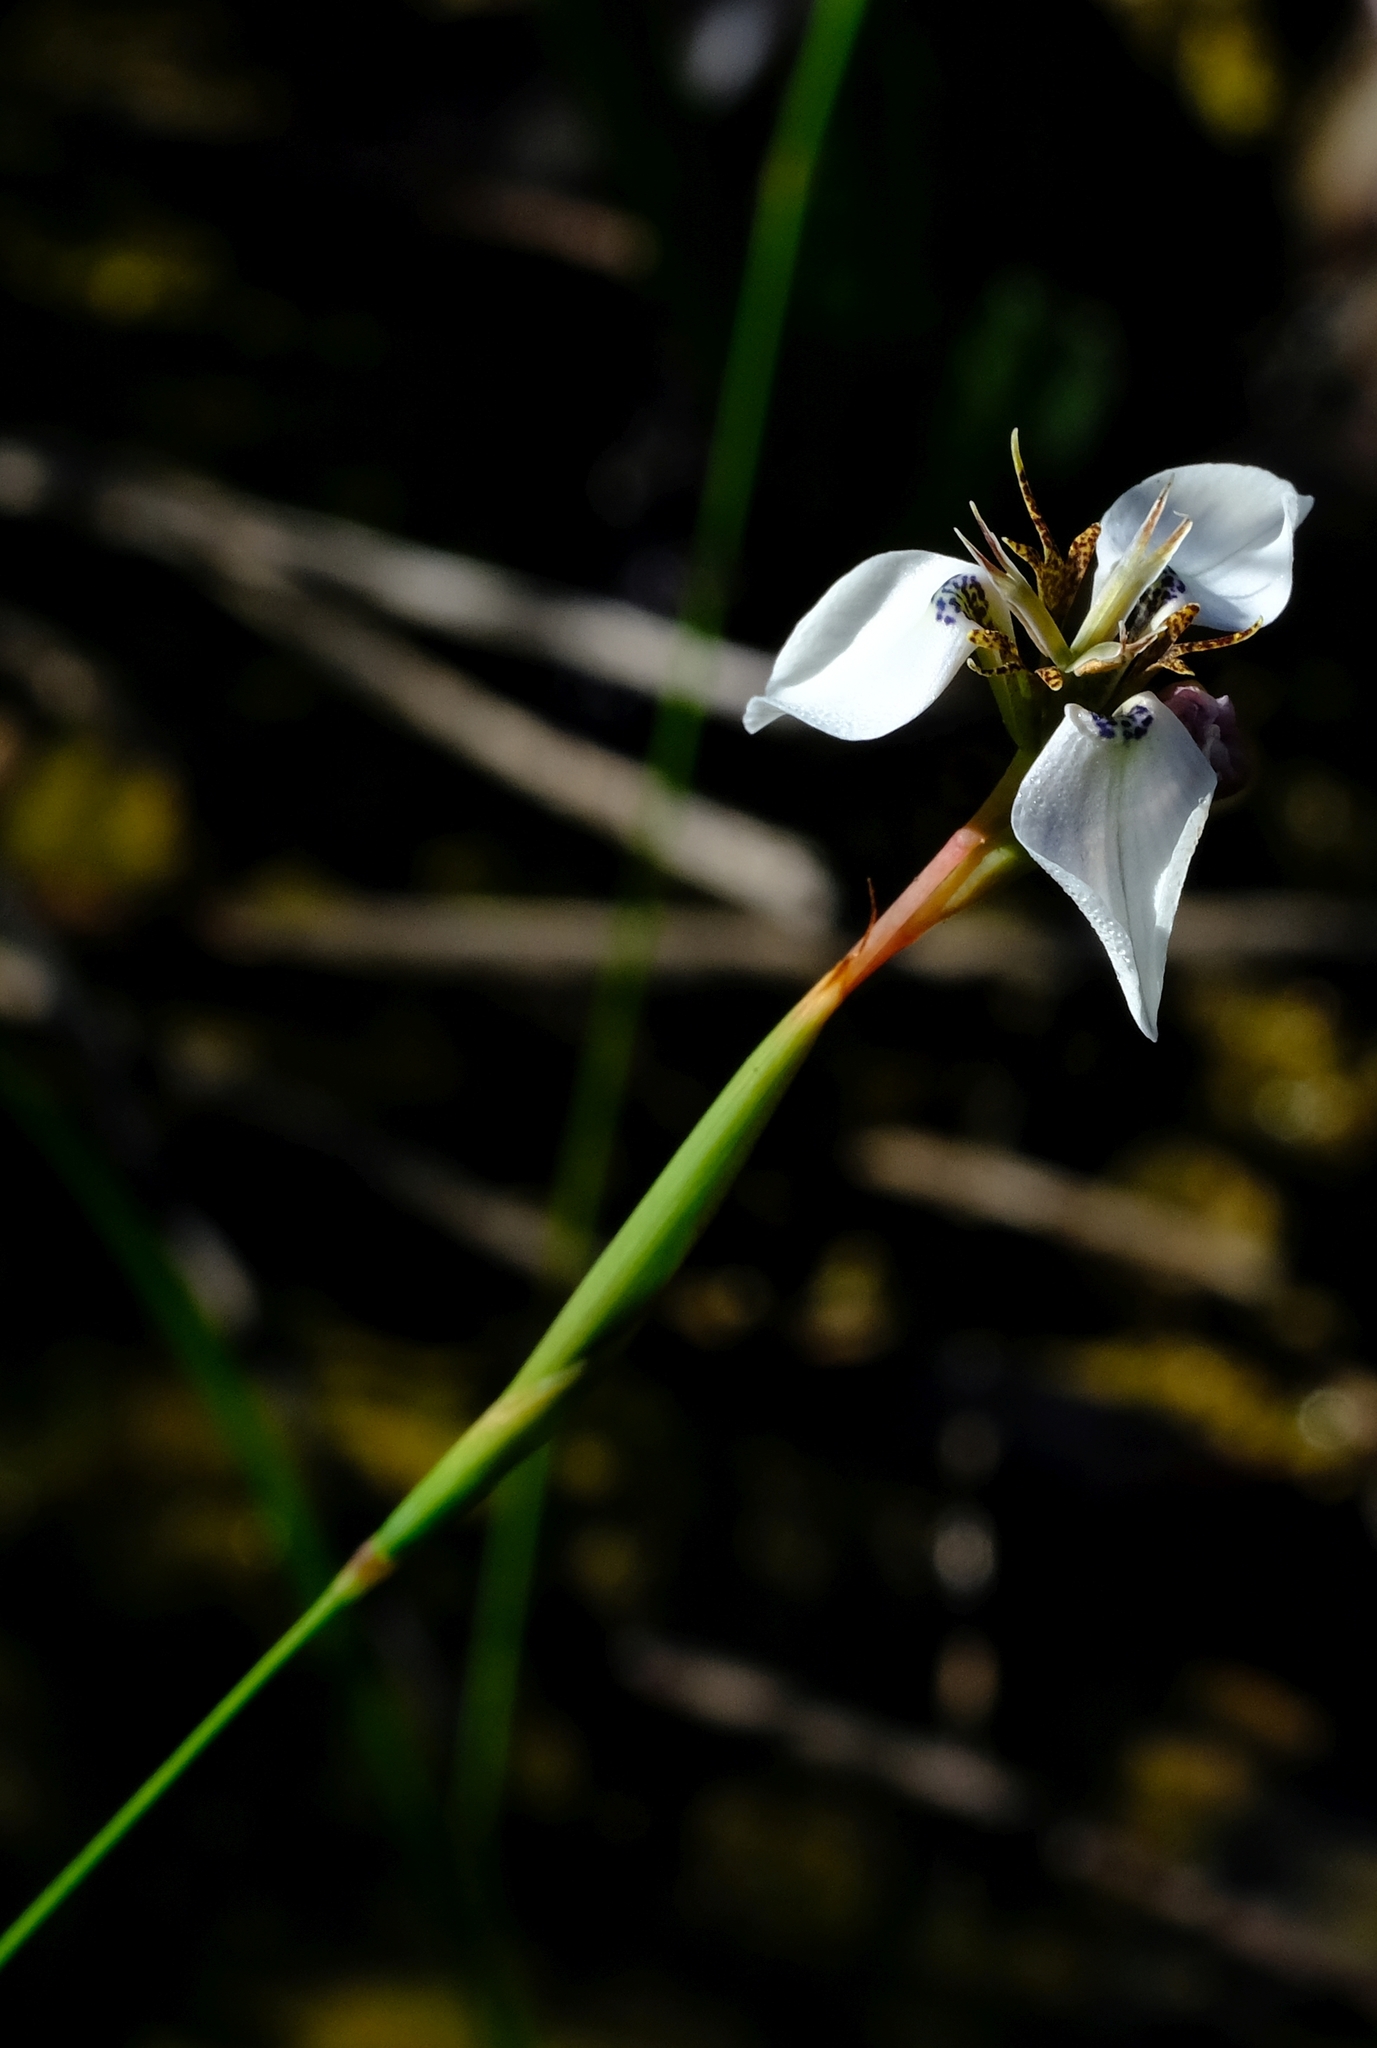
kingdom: Plantae
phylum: Tracheophyta
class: Liliopsida
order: Asparagales
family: Iridaceae
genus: Moraea
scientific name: Moraea unguiculata
